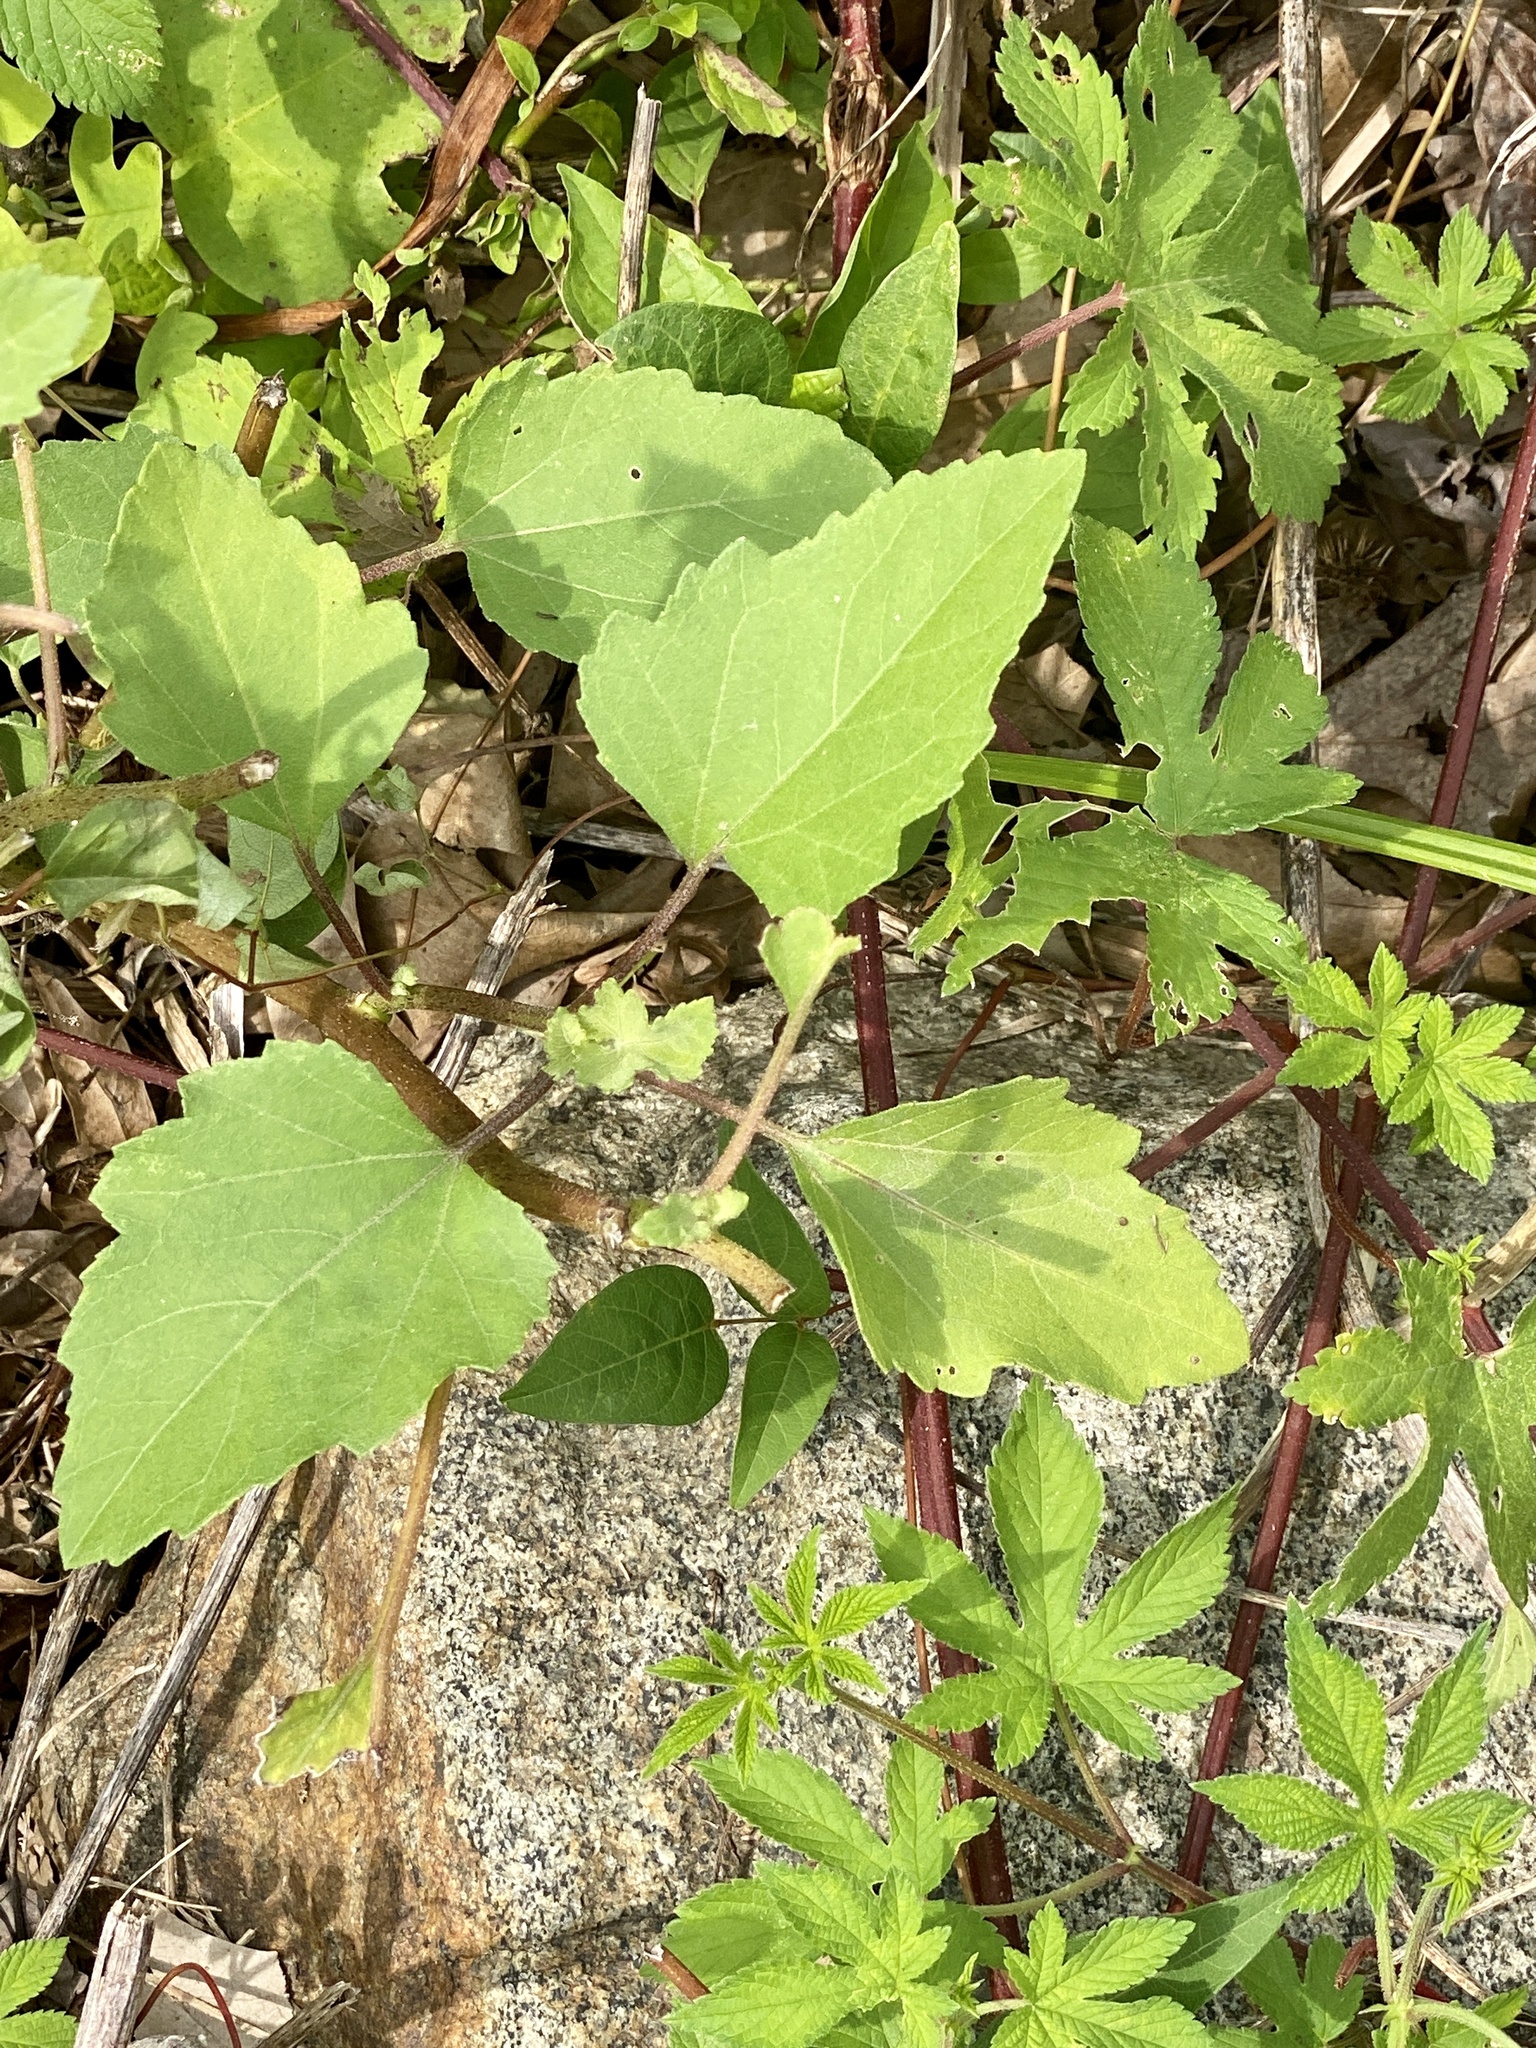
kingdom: Plantae
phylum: Tracheophyta
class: Magnoliopsida
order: Asterales
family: Asteraceae
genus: Xanthium
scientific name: Xanthium strumarium
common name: Rough cocklebur
